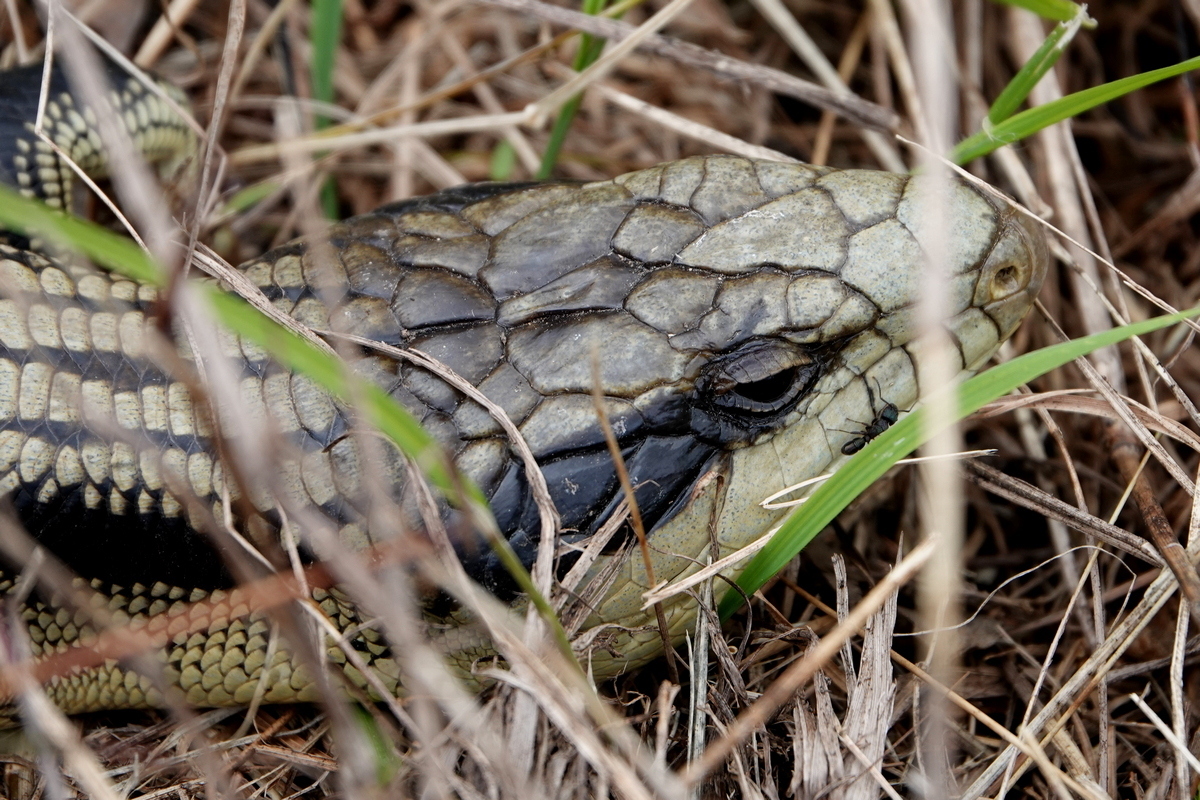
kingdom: Animalia
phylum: Chordata
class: Squamata
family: Scincidae
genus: Tiliqua
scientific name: Tiliqua scincoides
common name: Common bluetongue
